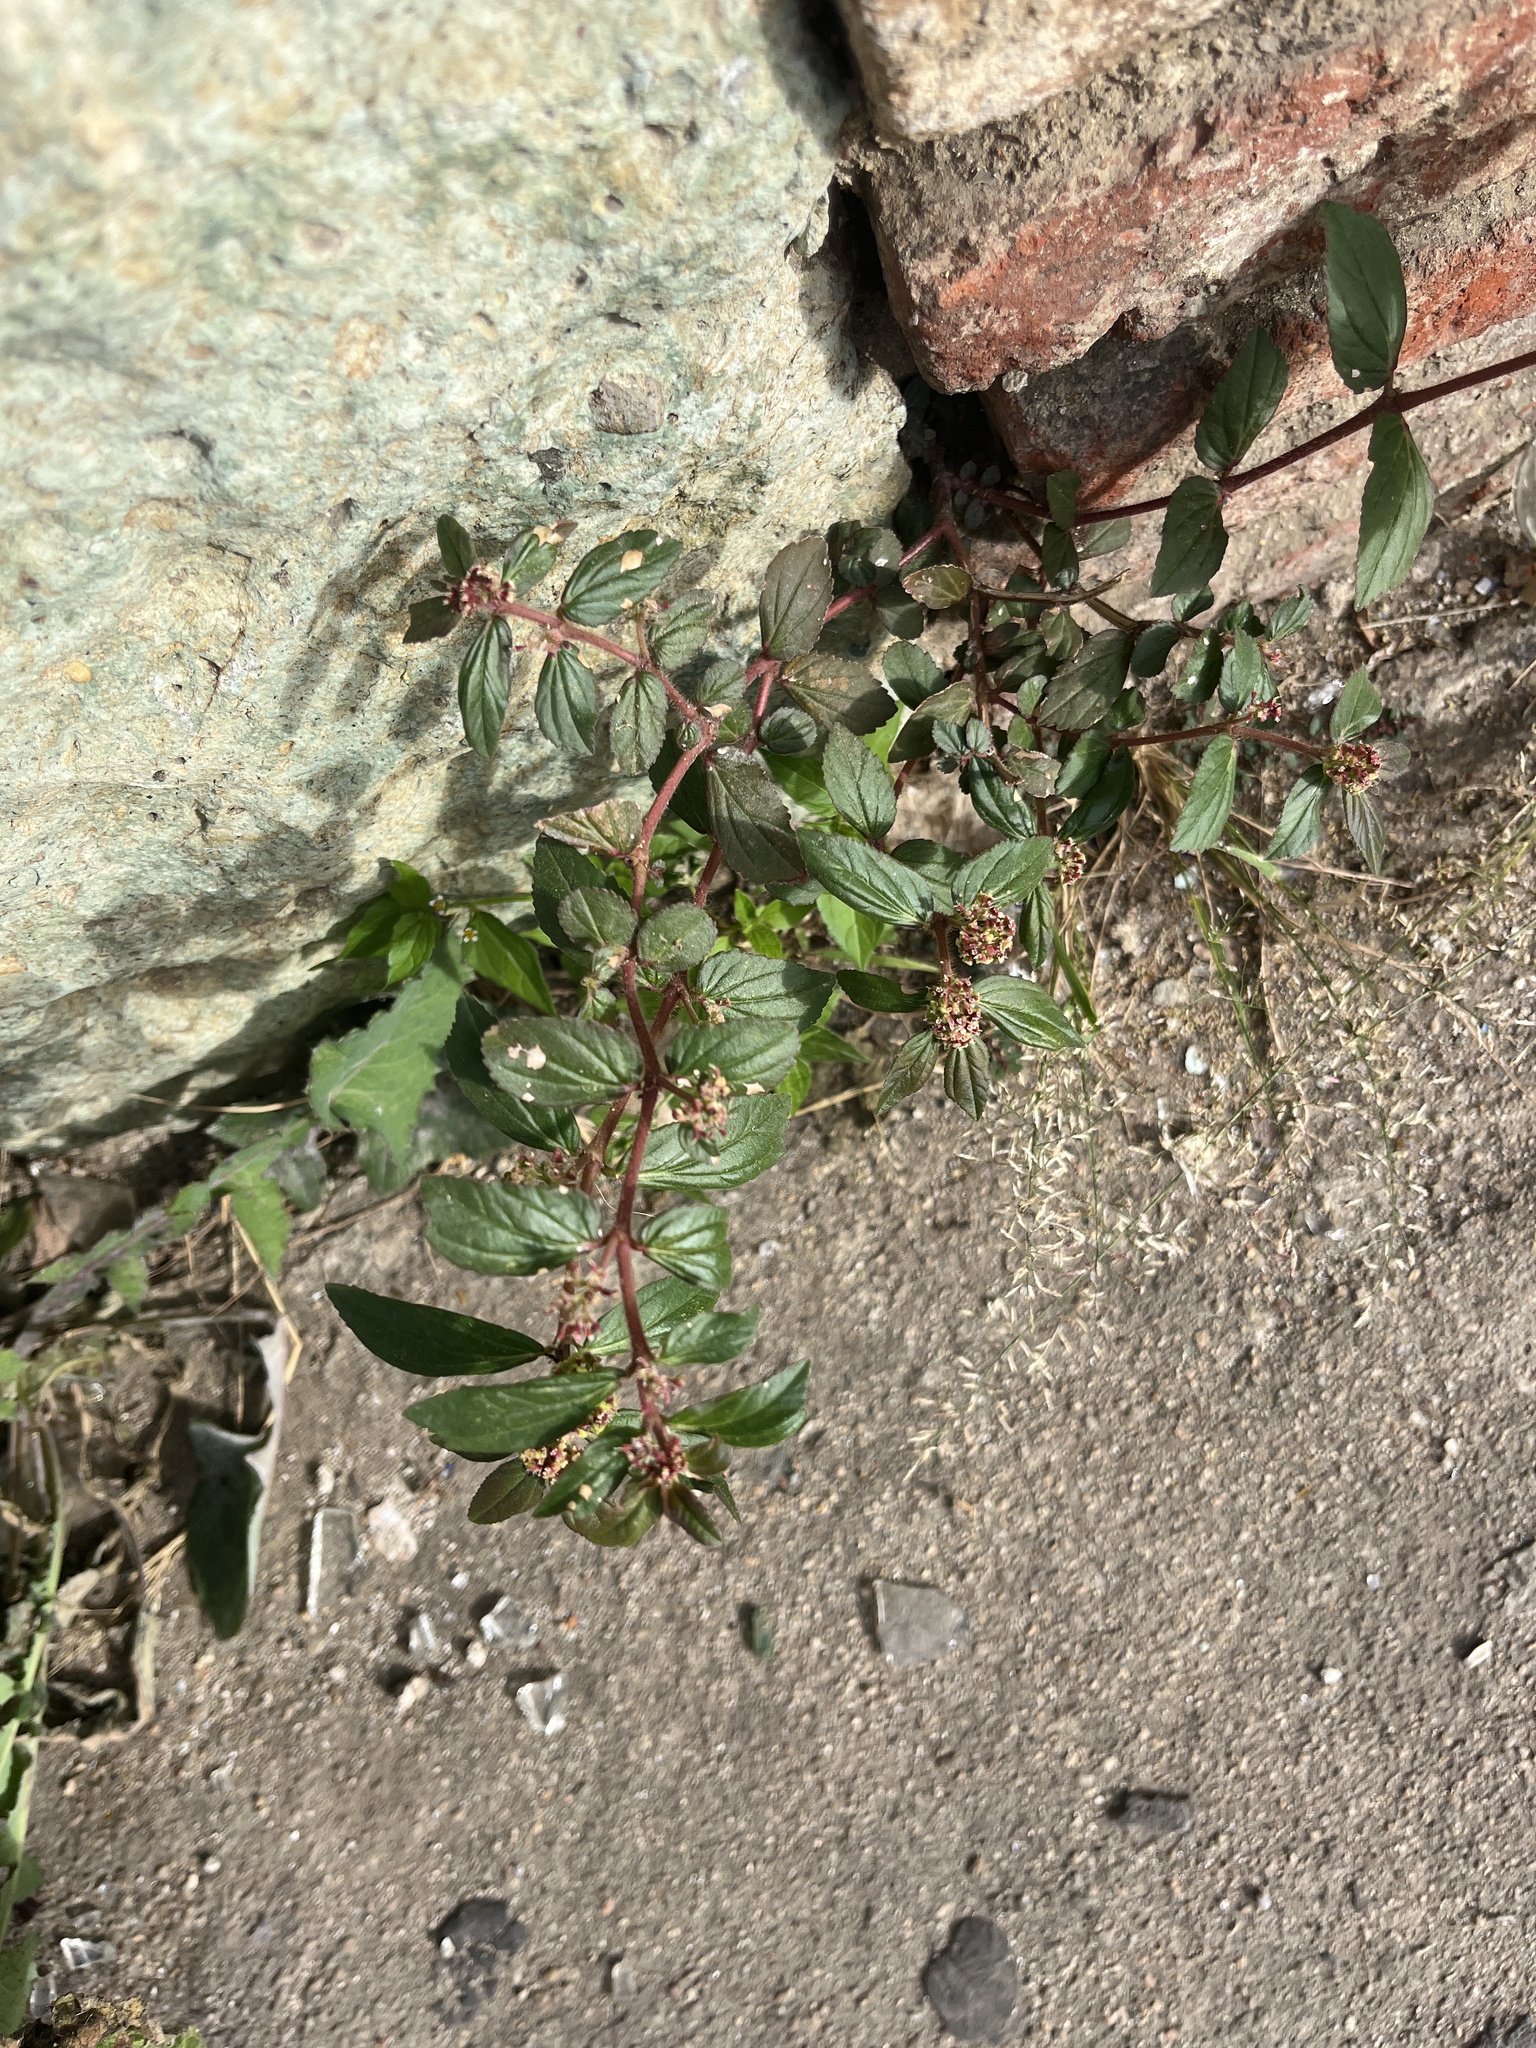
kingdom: Plantae
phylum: Tracheophyta
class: Magnoliopsida
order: Malpighiales
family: Euphorbiaceae
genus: Euphorbia
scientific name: Euphorbia hirta
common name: Pillpod sandmat
